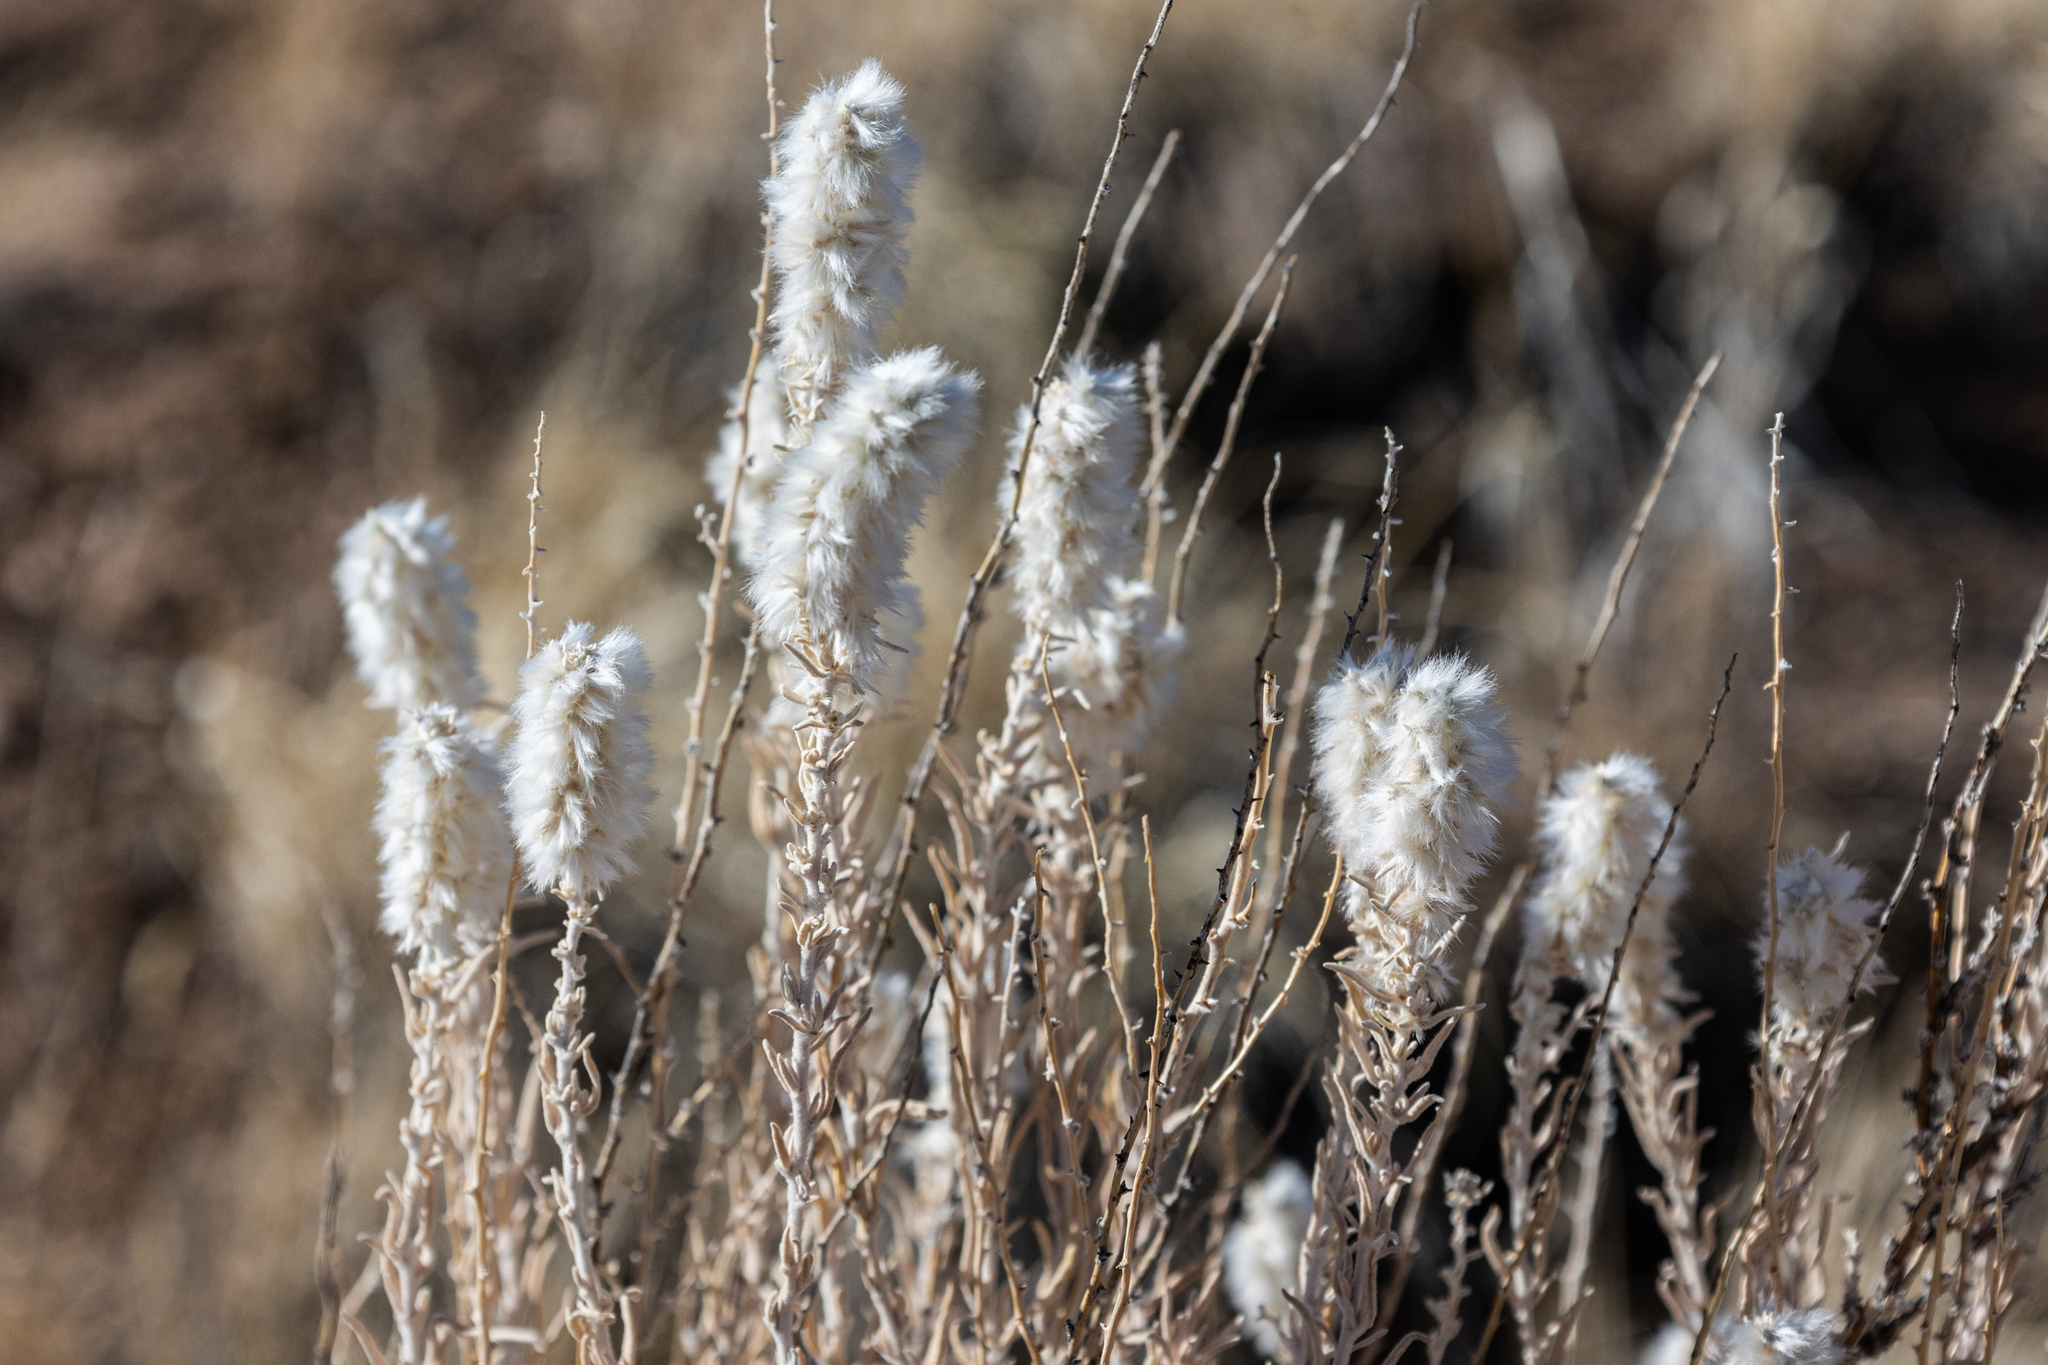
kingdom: Plantae
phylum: Tracheophyta
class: Magnoliopsida
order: Caryophyllales
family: Amaranthaceae
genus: Krascheninnikovia
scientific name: Krascheninnikovia lanata
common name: Winterfat
